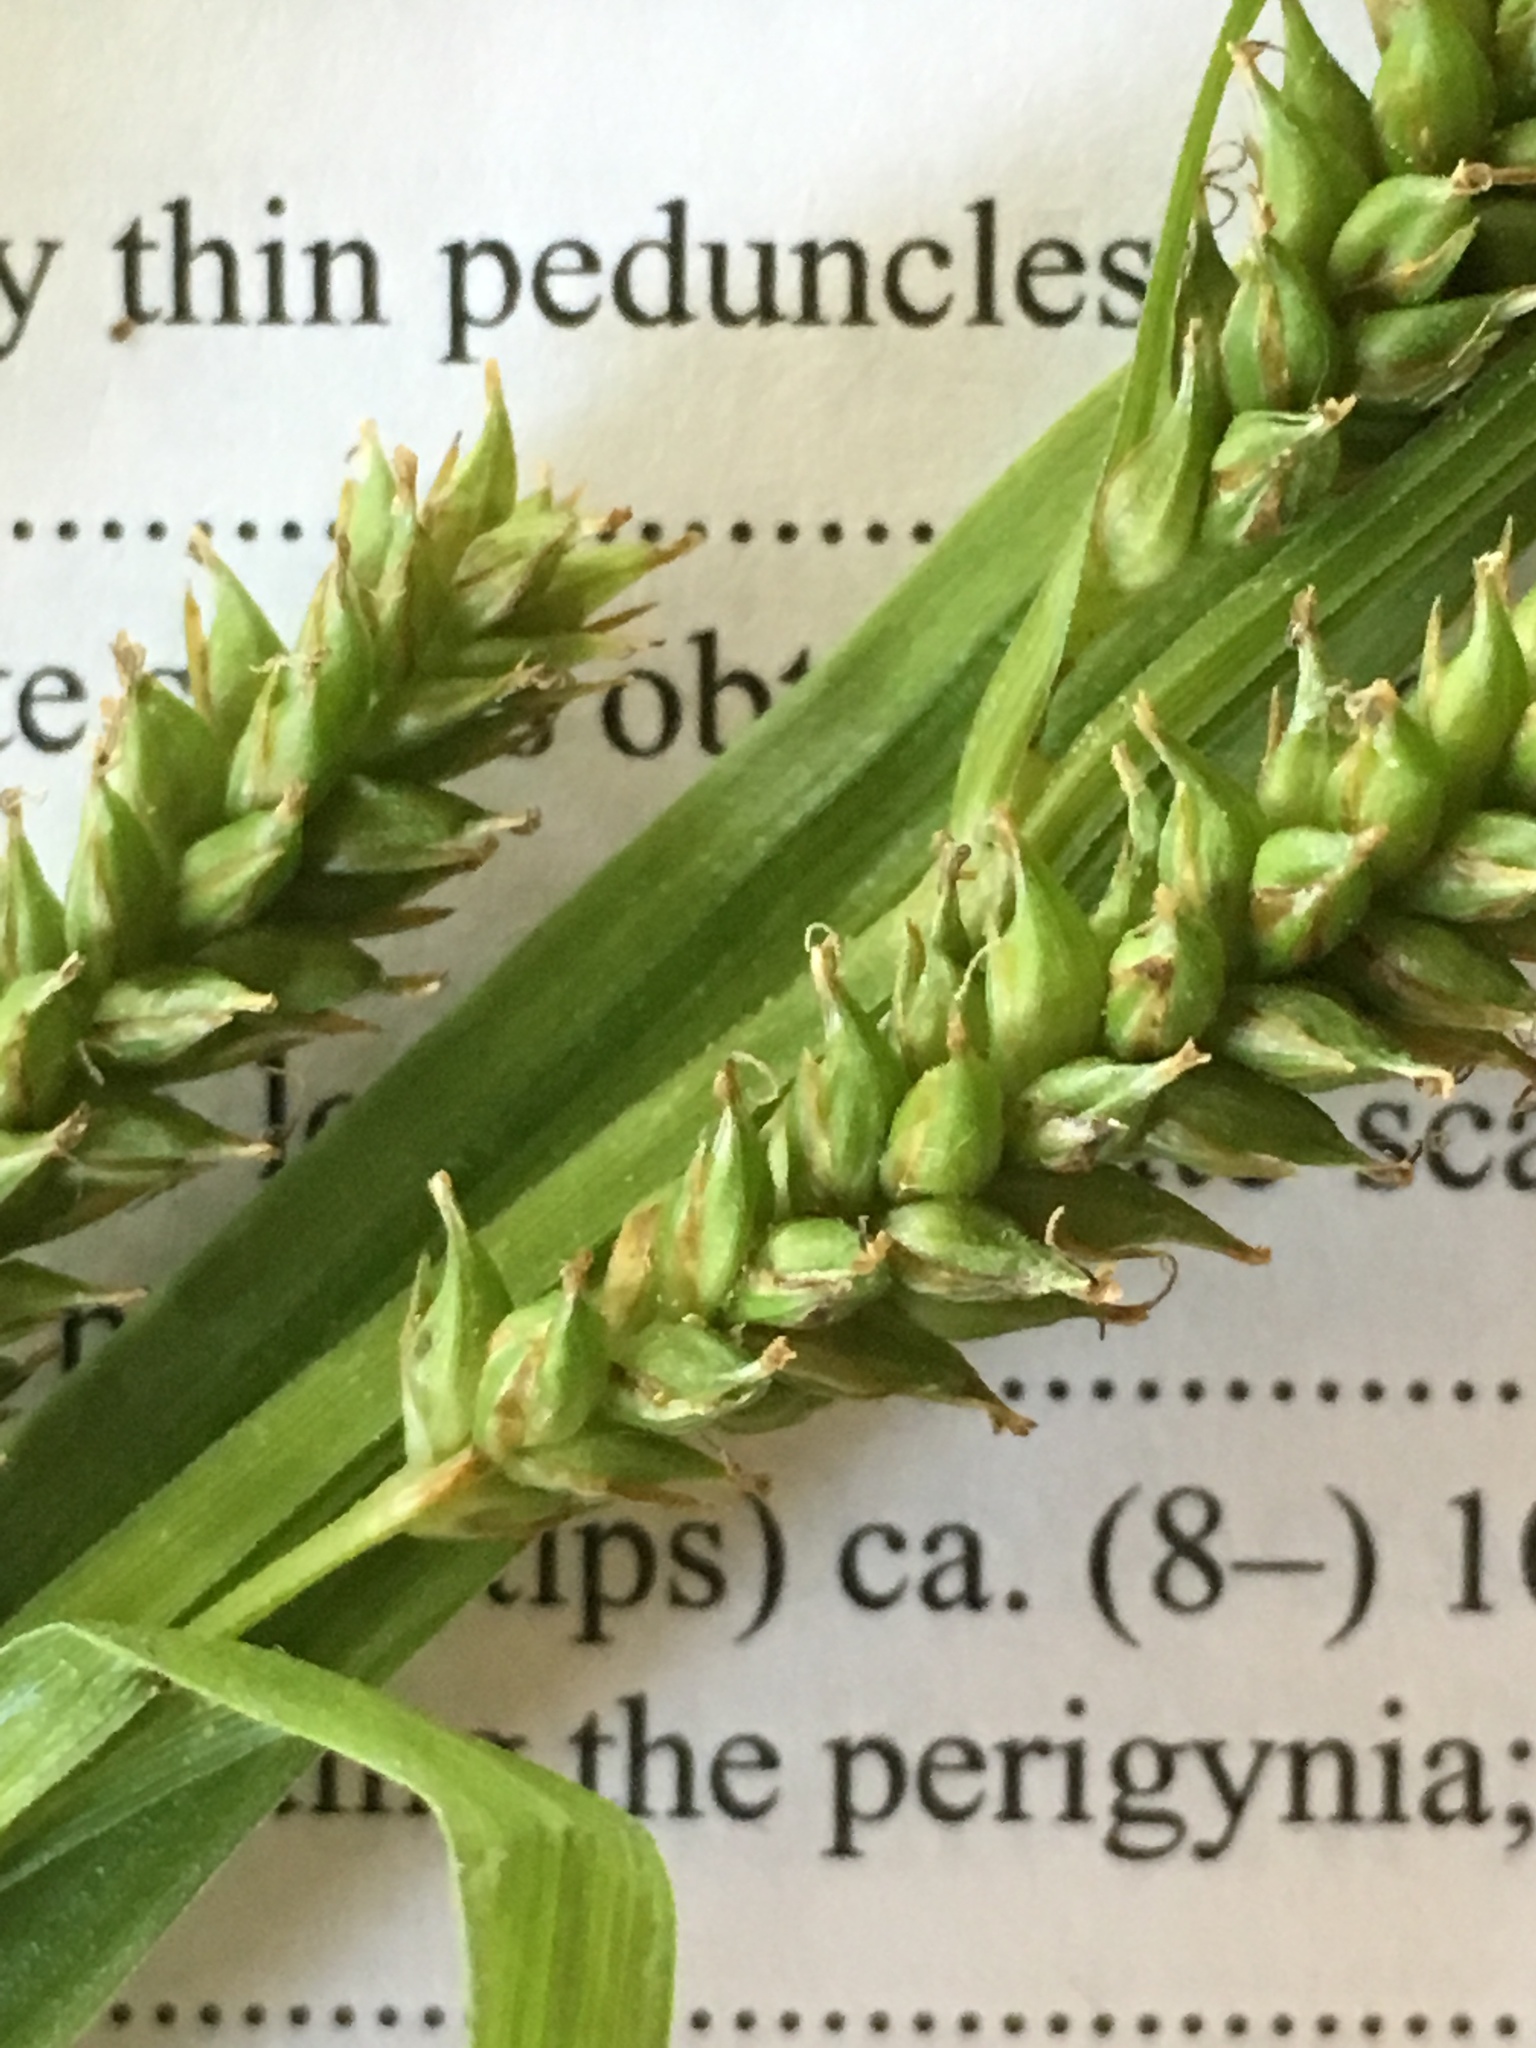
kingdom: Plantae
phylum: Tracheophyta
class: Liliopsida
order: Poales
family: Cyperaceae
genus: Carex
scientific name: Carex scabrata
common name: Eastern rough sedge
